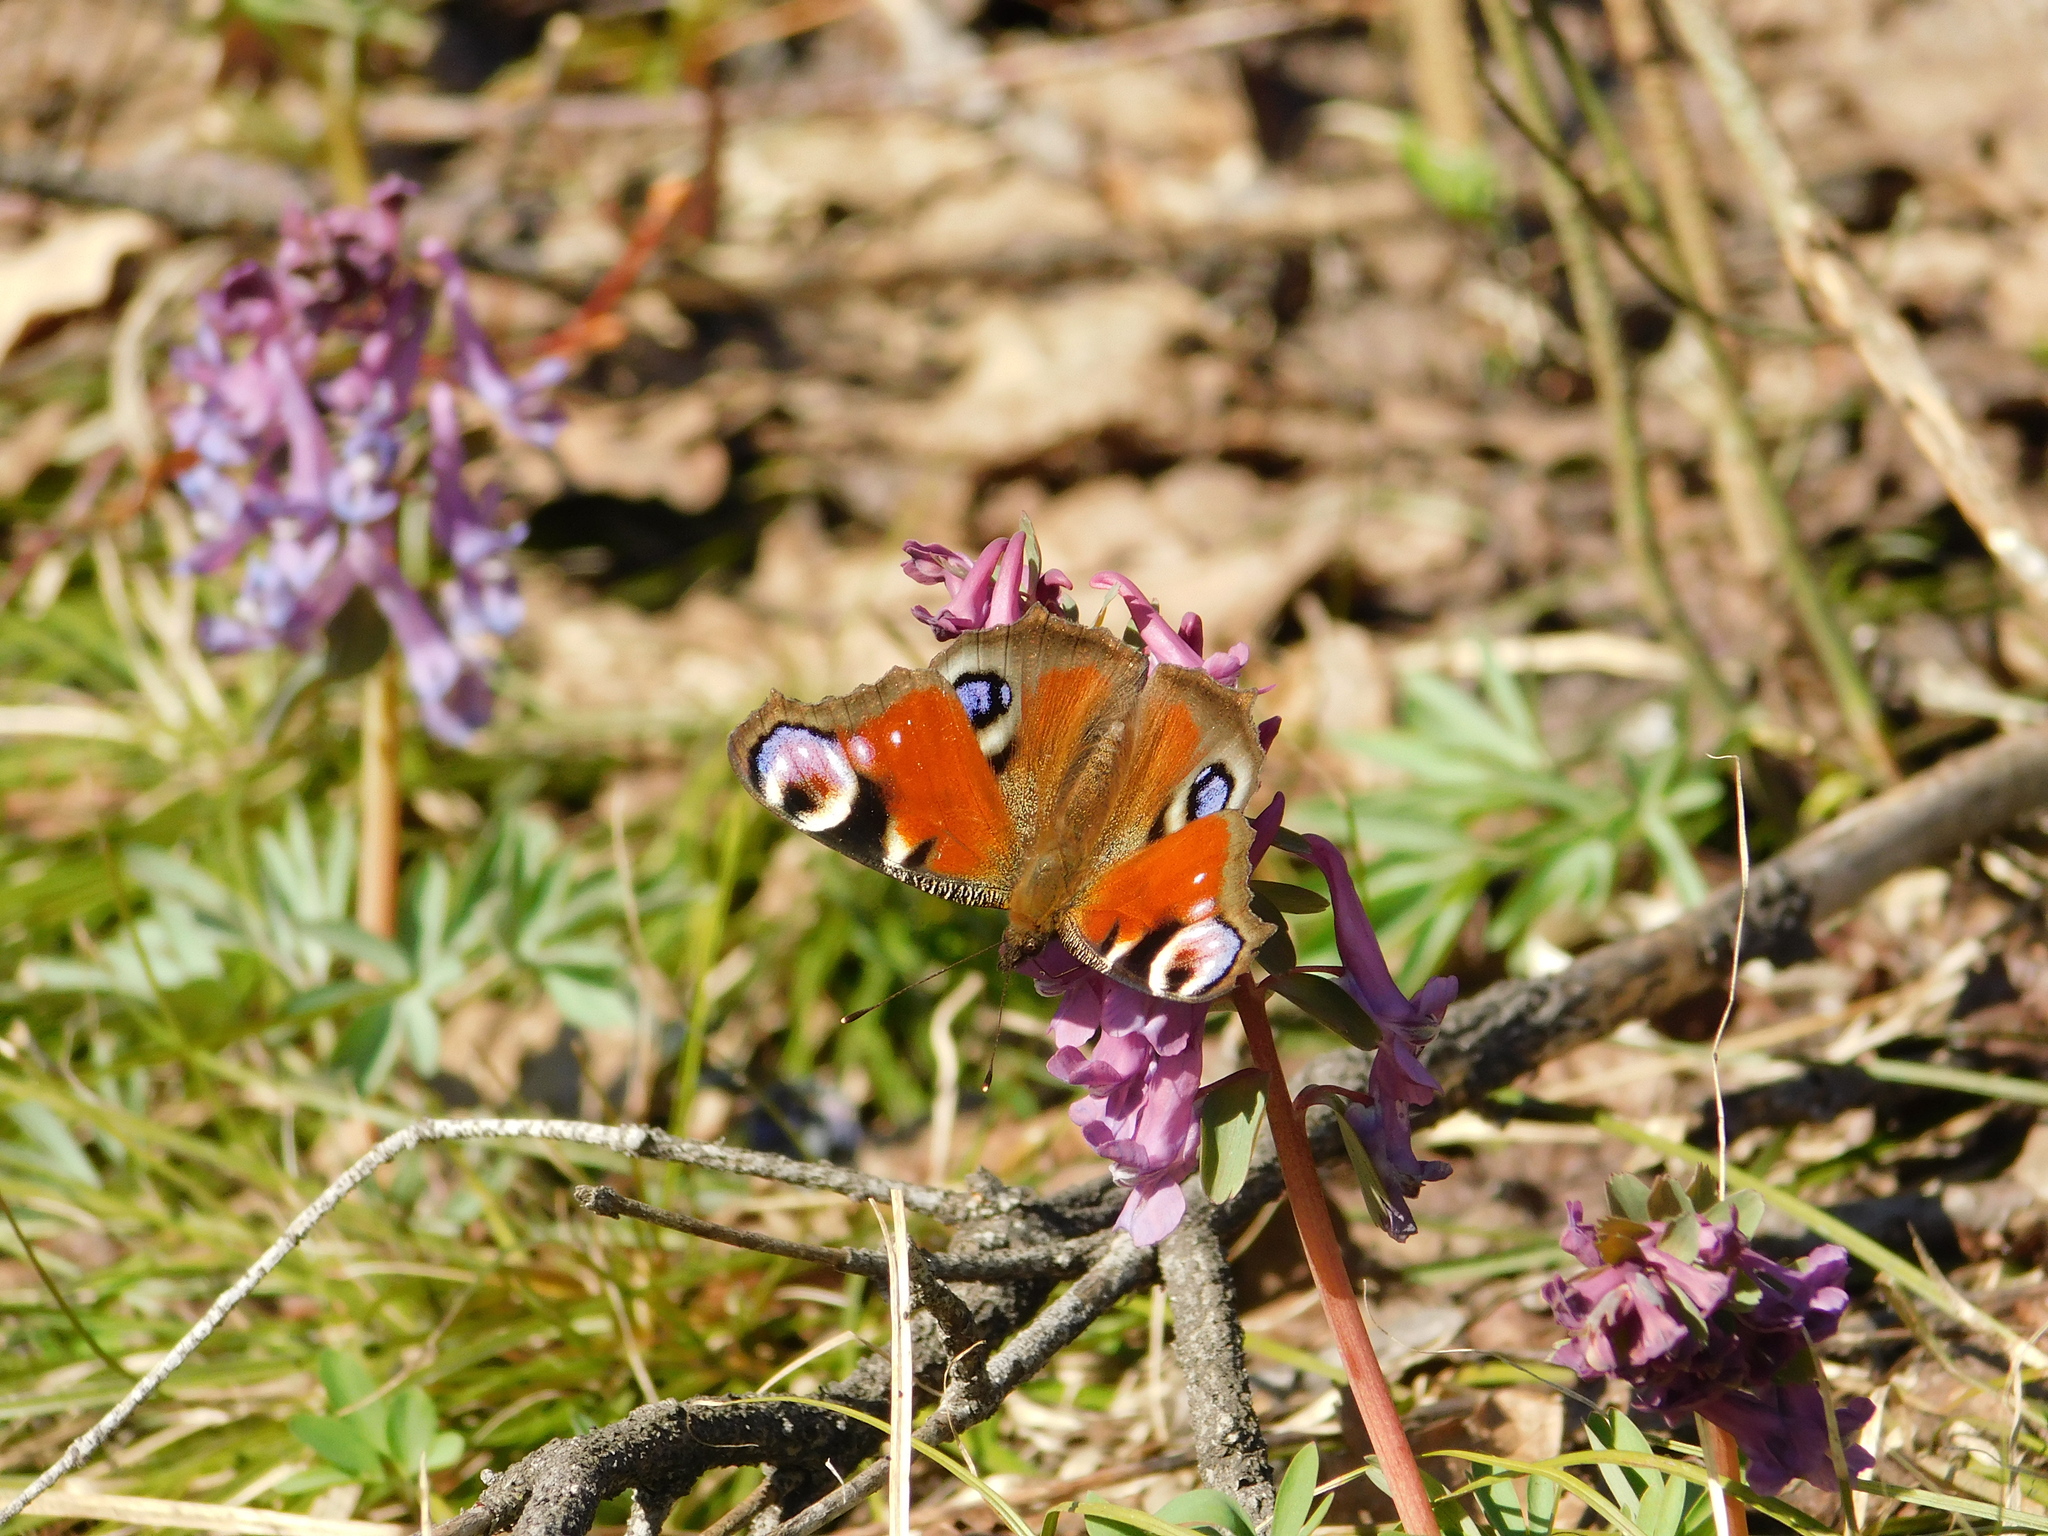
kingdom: Animalia
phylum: Arthropoda
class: Insecta
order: Lepidoptera
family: Nymphalidae
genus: Aglais
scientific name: Aglais io
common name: Peacock
